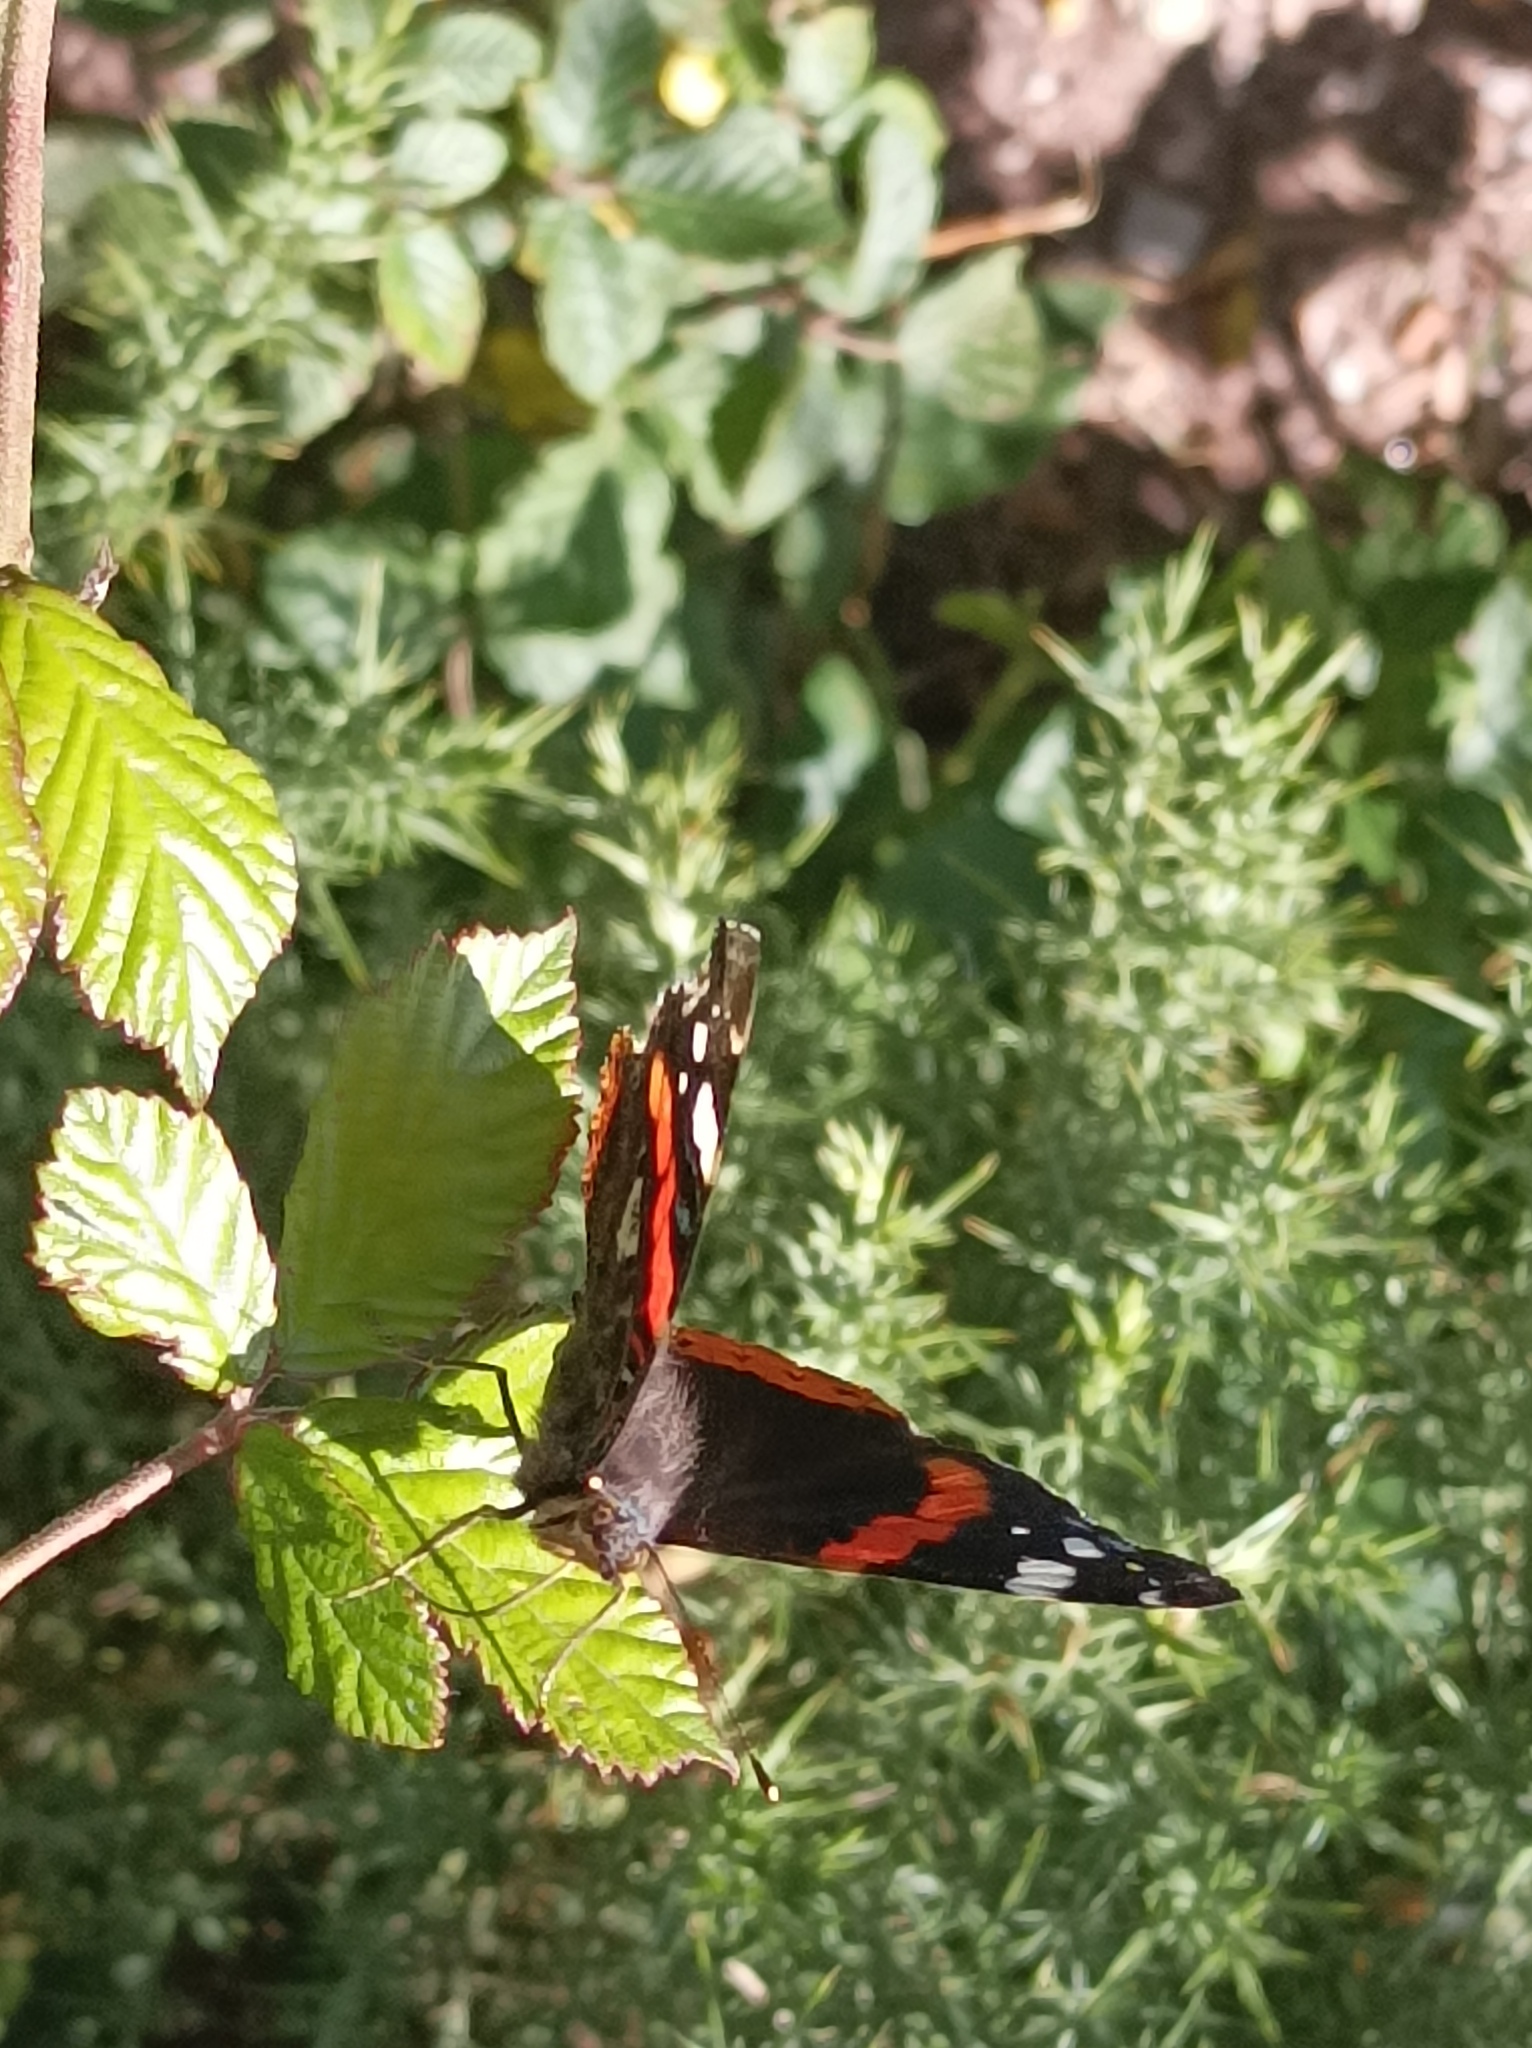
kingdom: Animalia
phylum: Arthropoda
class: Insecta
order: Lepidoptera
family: Nymphalidae
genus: Vanessa
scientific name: Vanessa atalanta
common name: Red admiral
